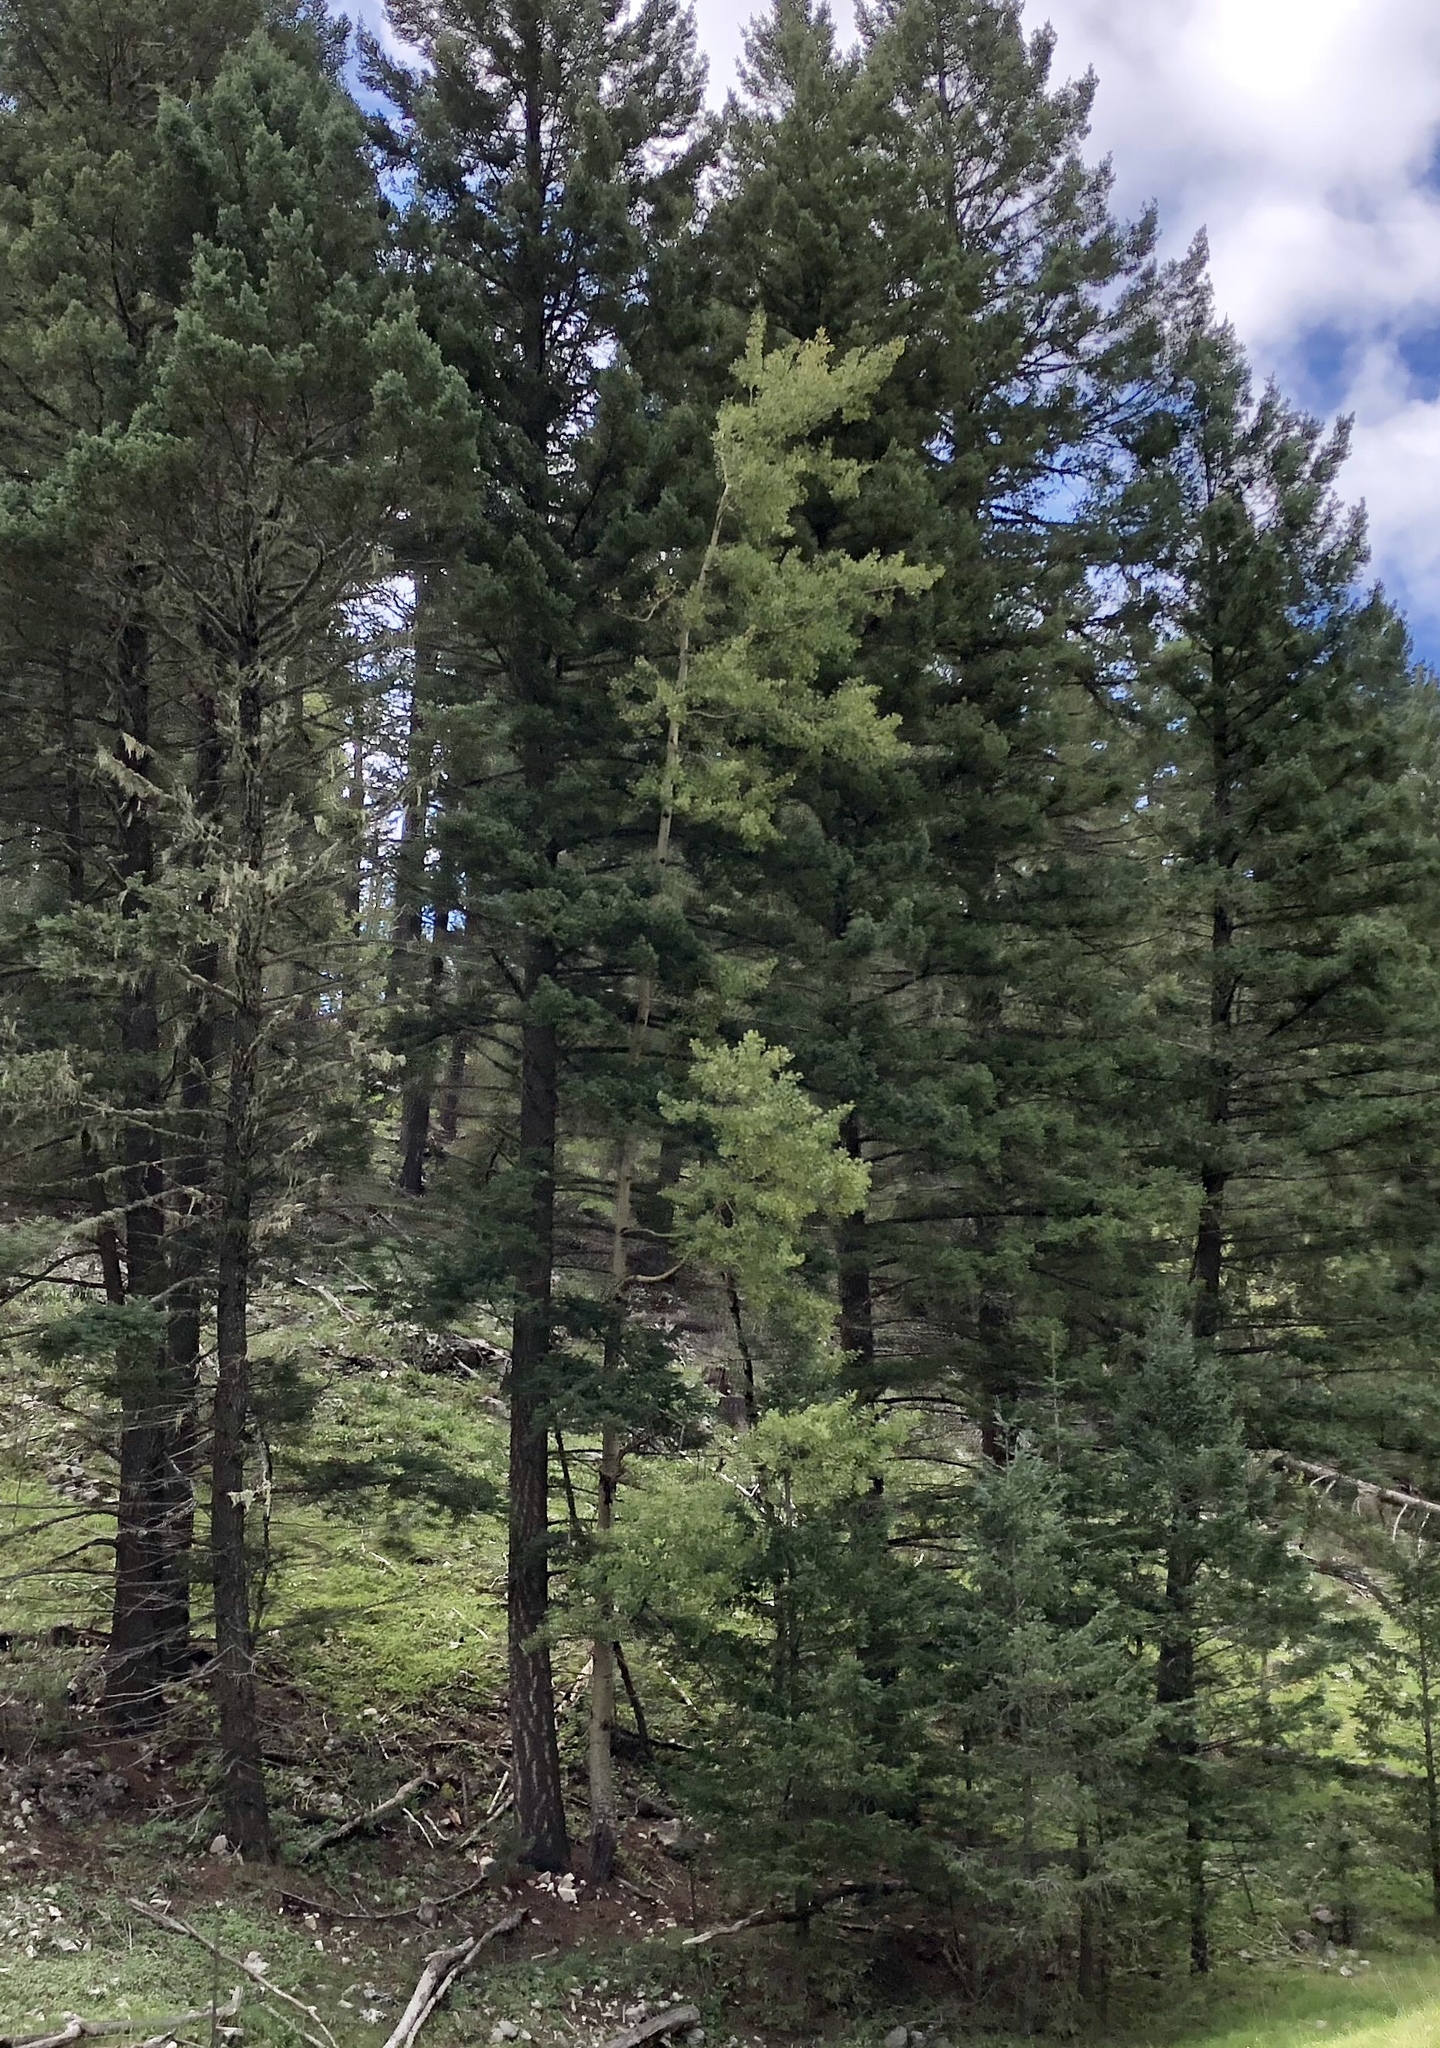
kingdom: Plantae
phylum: Tracheophyta
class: Magnoliopsida
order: Malpighiales
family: Salicaceae
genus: Populus
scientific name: Populus tremuloides
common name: Quaking aspen
